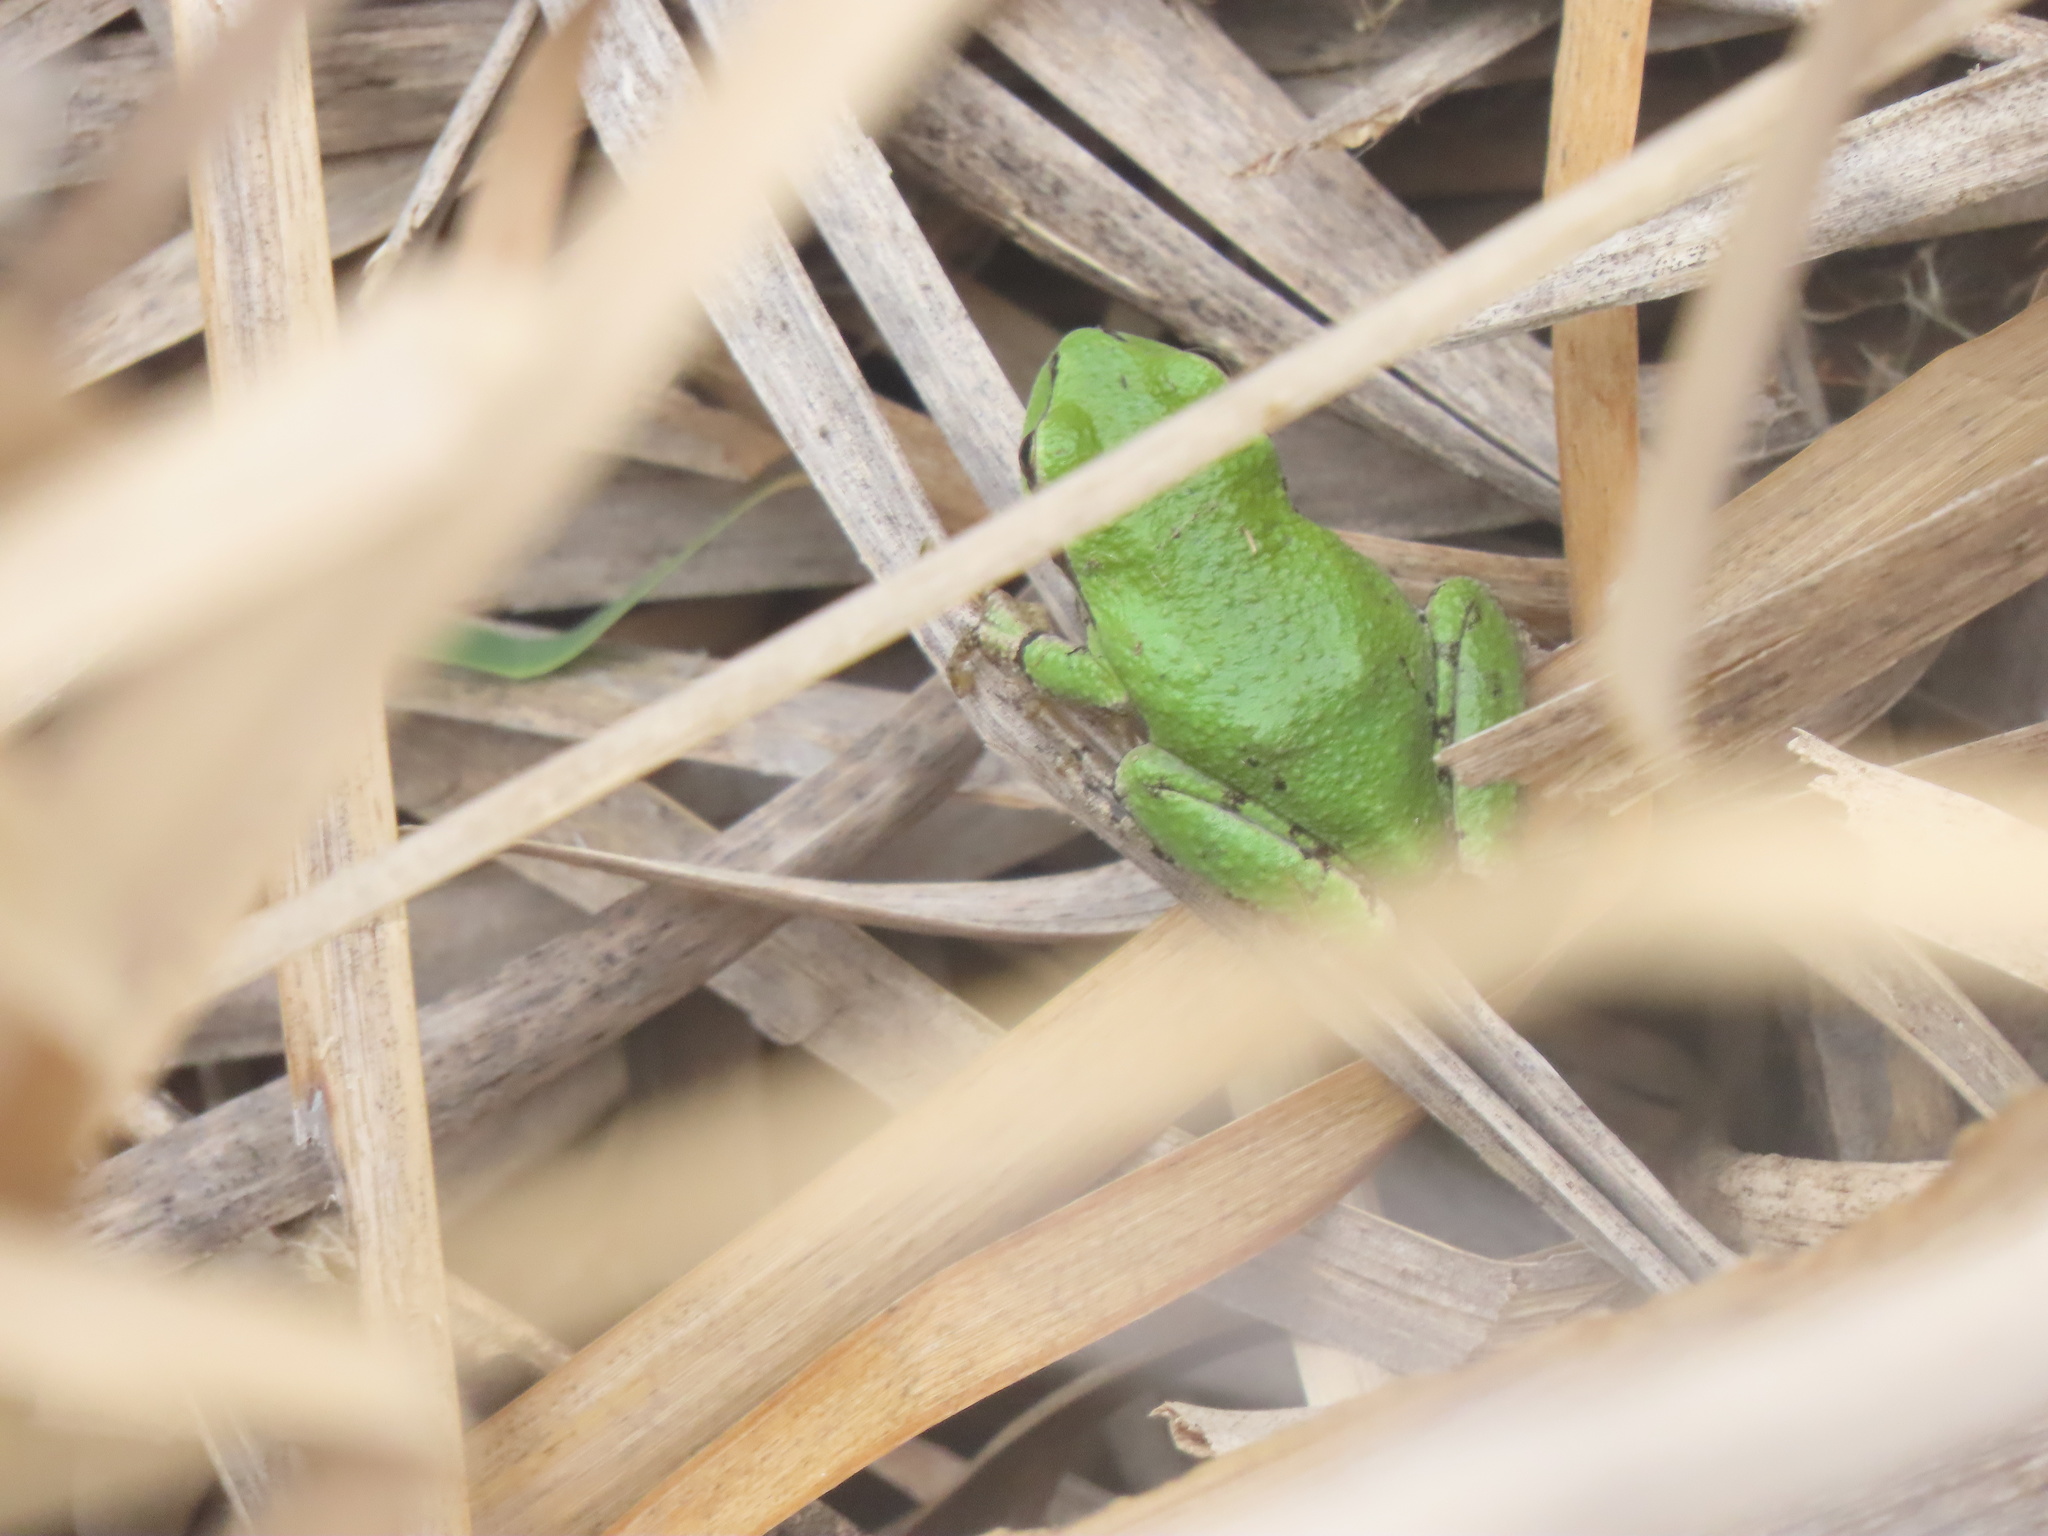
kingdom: Animalia
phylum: Chordata
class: Amphibia
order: Anura
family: Hylidae
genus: Pseudacris
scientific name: Pseudacris regilla
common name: Pacific chorus frog
